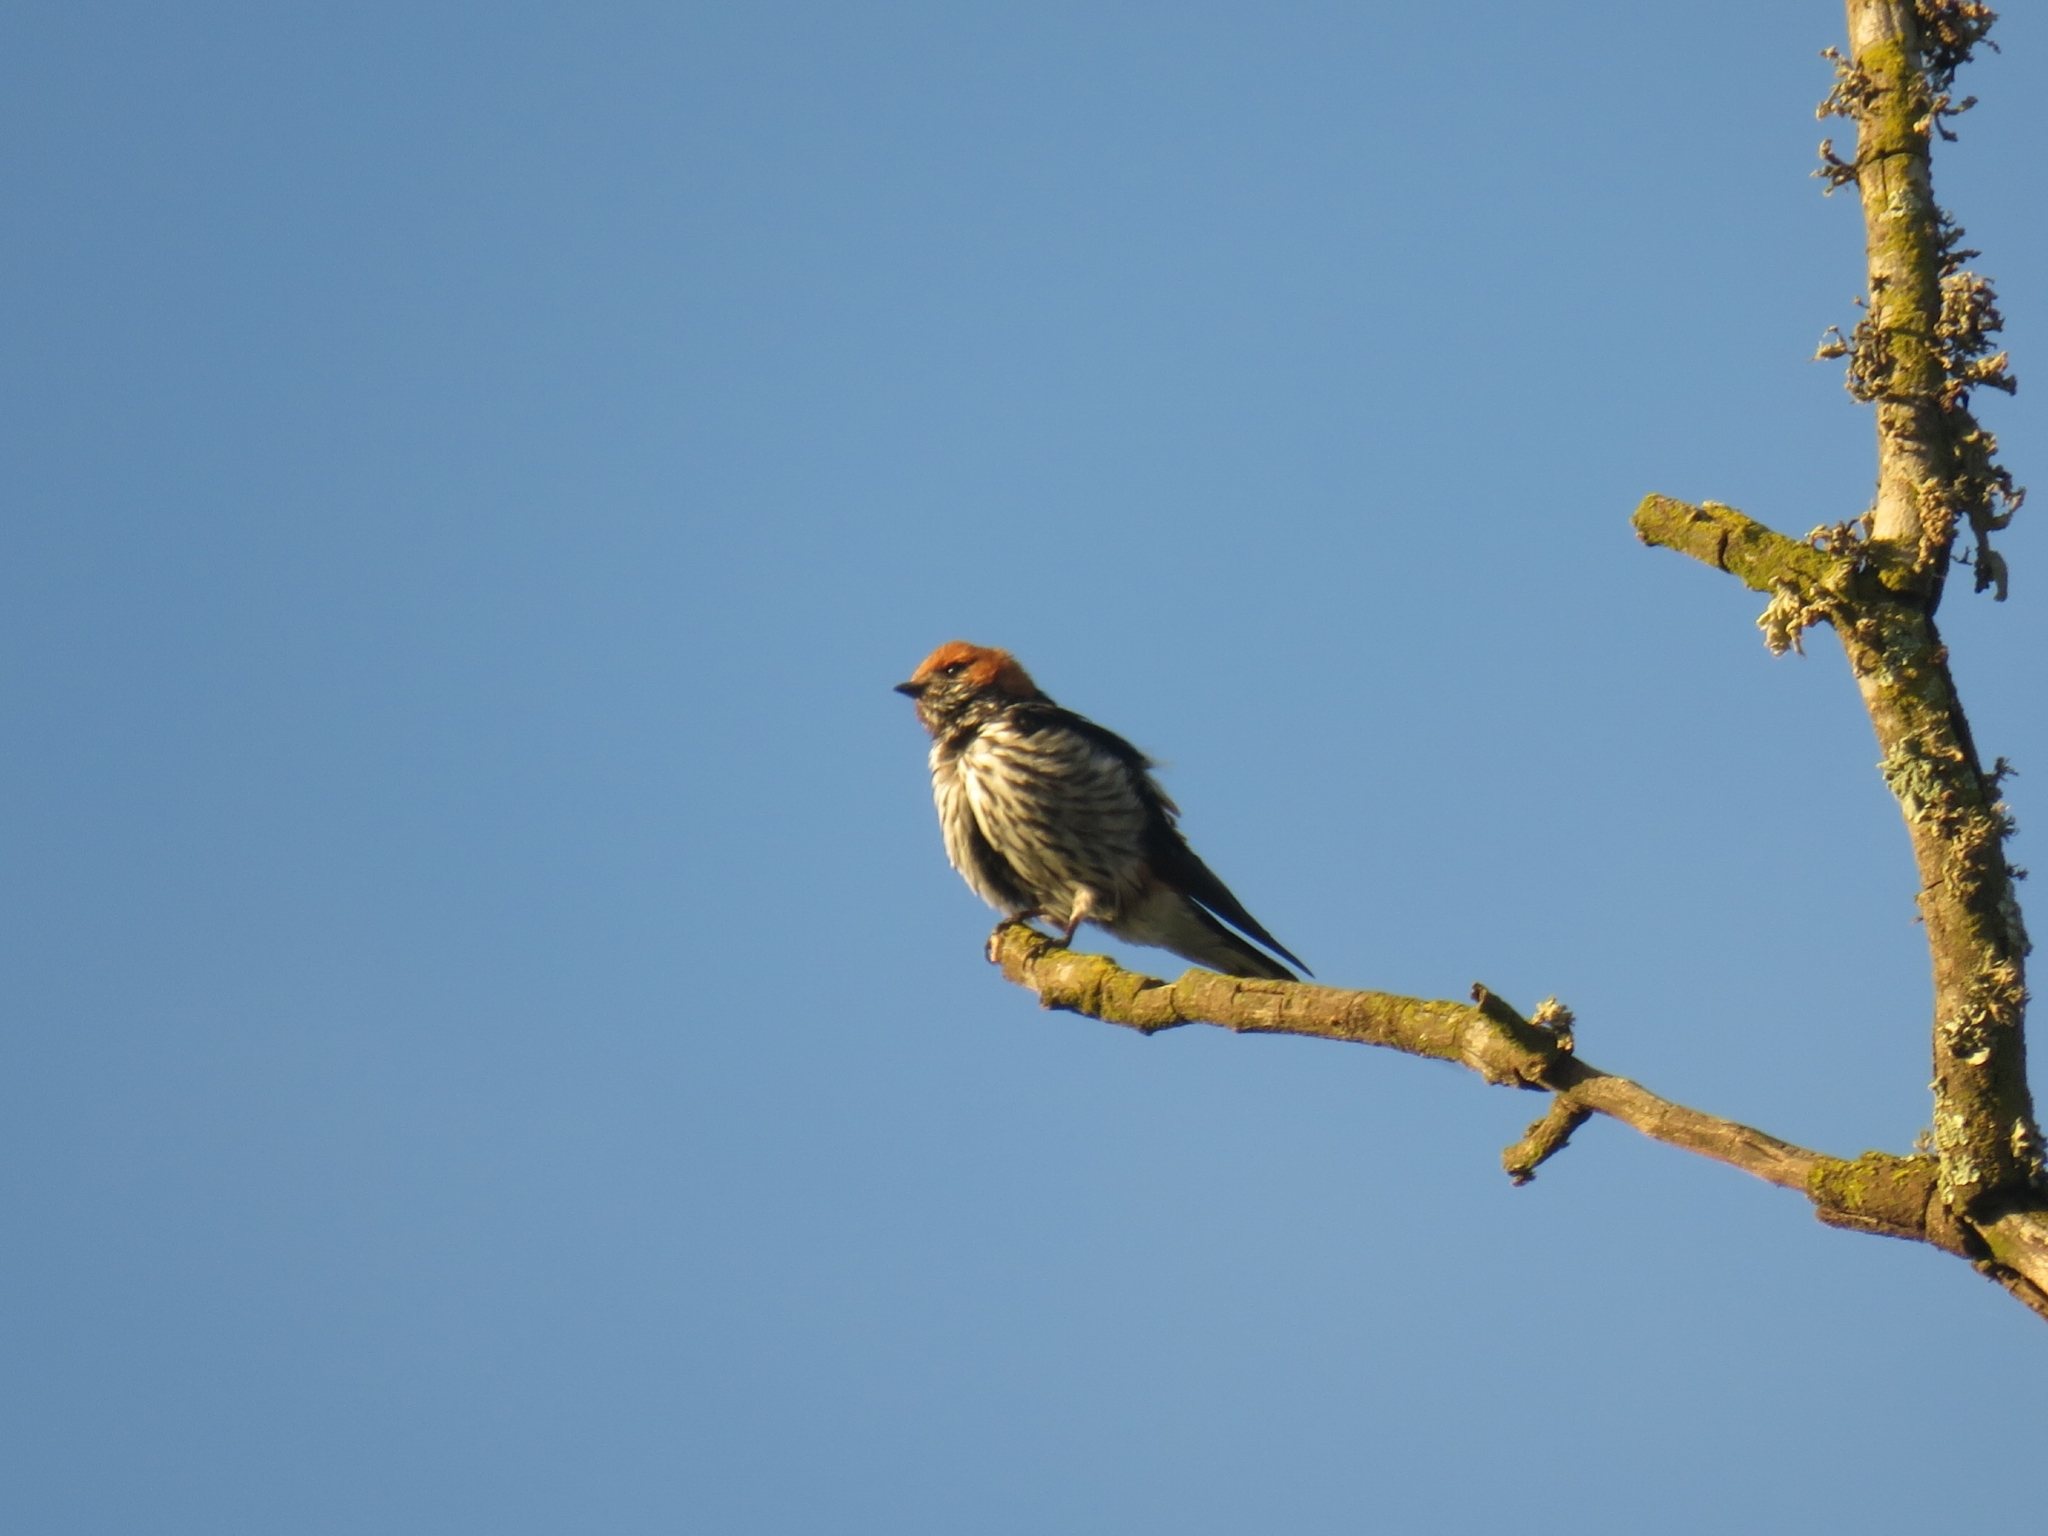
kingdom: Animalia
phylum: Chordata
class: Aves
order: Passeriformes
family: Hirundinidae
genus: Cecropis
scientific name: Cecropis abyssinica
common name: Lesser striped-swallow
